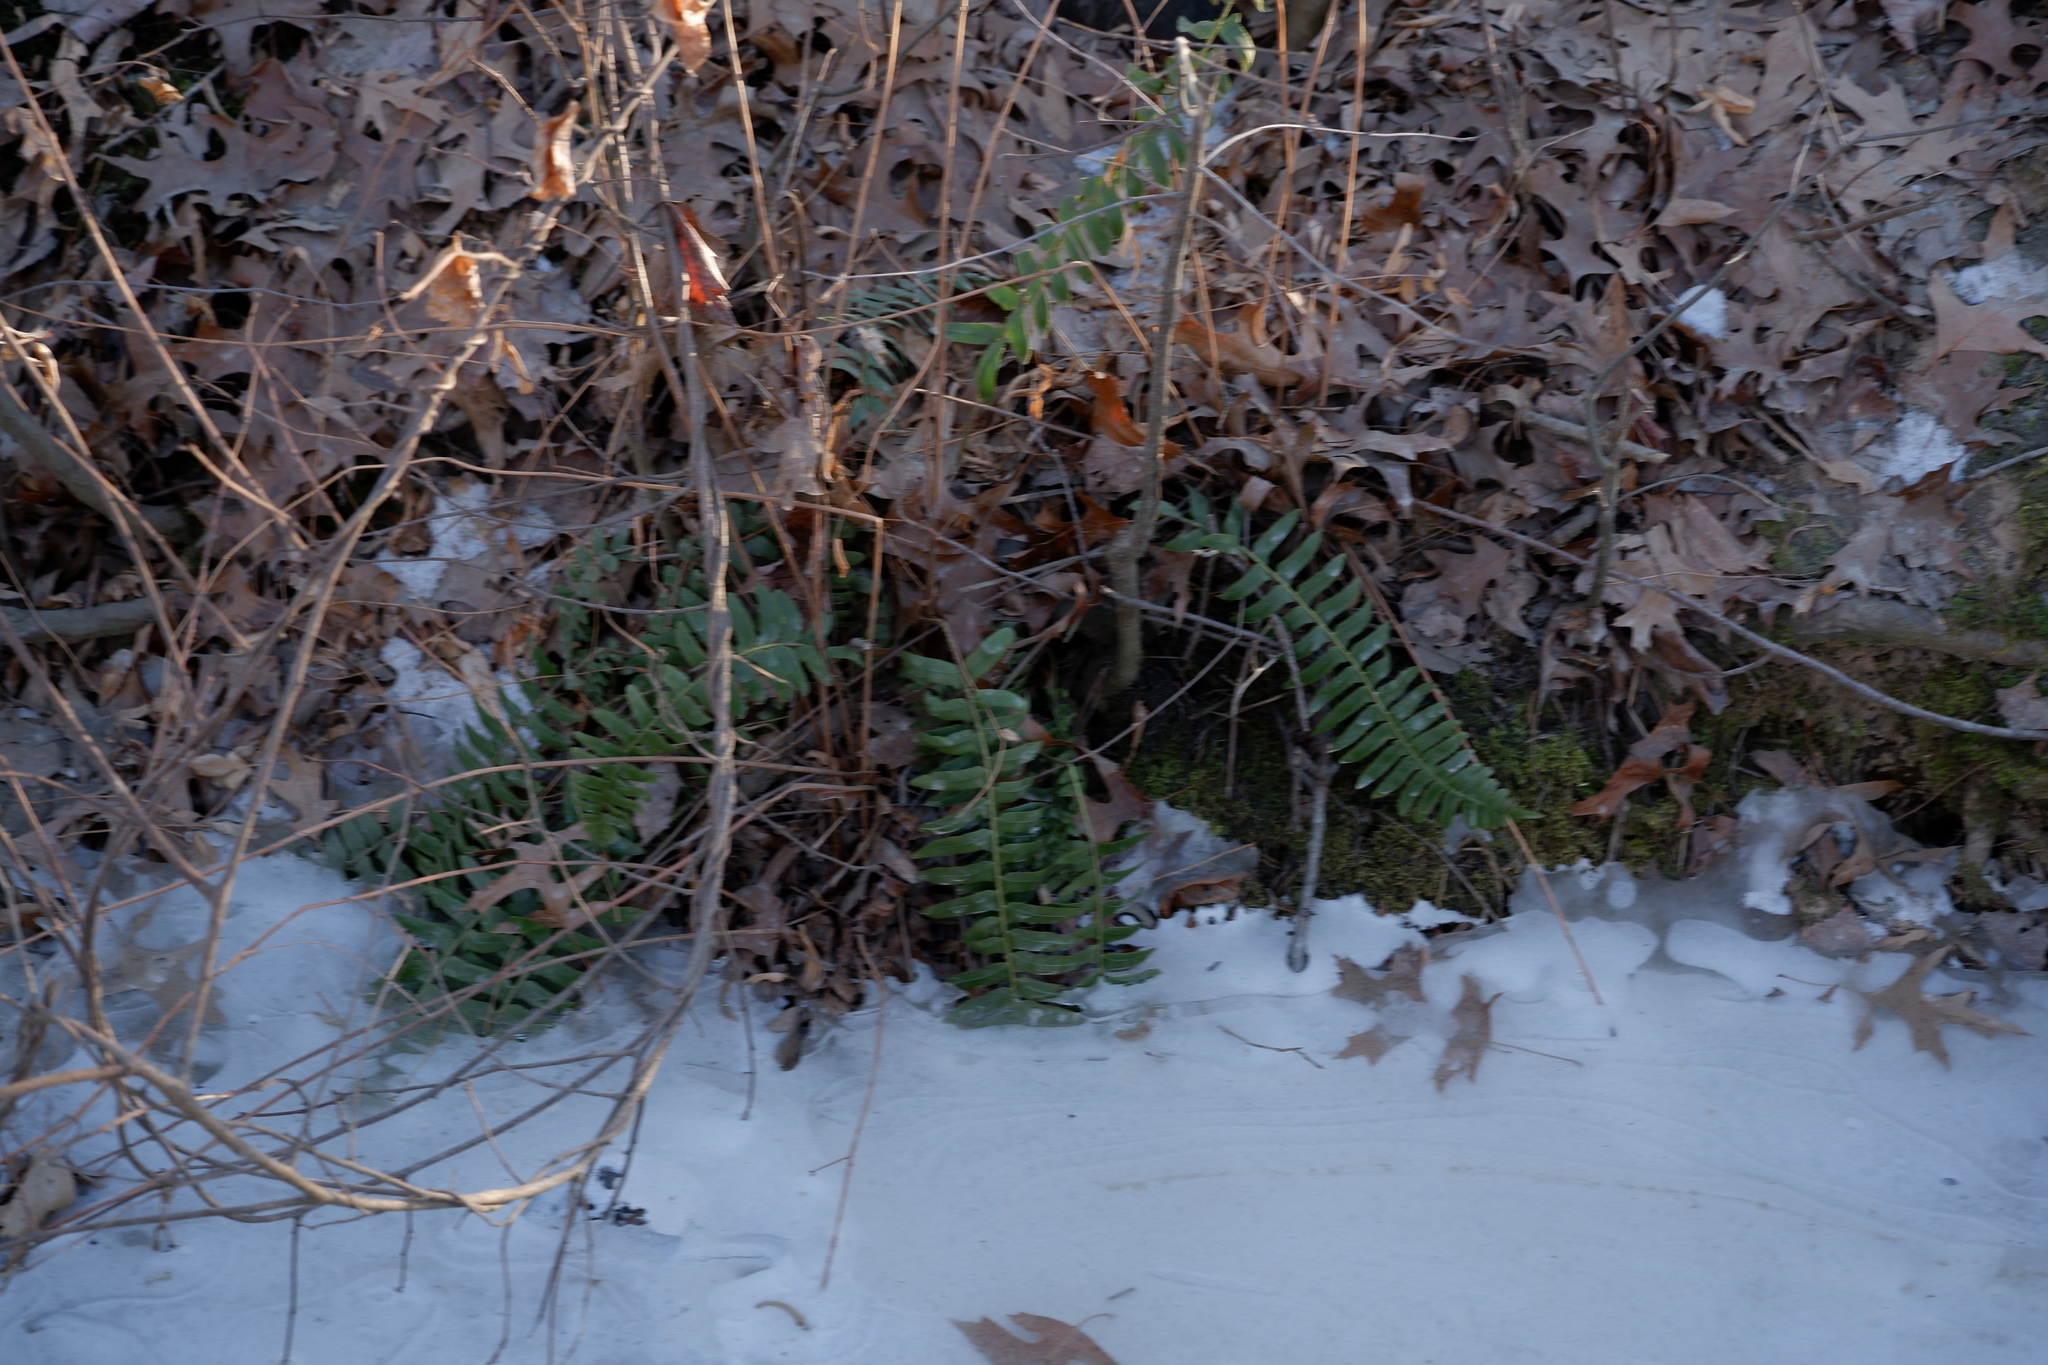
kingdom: Plantae
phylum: Tracheophyta
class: Polypodiopsida
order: Polypodiales
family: Dryopteridaceae
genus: Polystichum
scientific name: Polystichum acrostichoides
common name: Christmas fern
